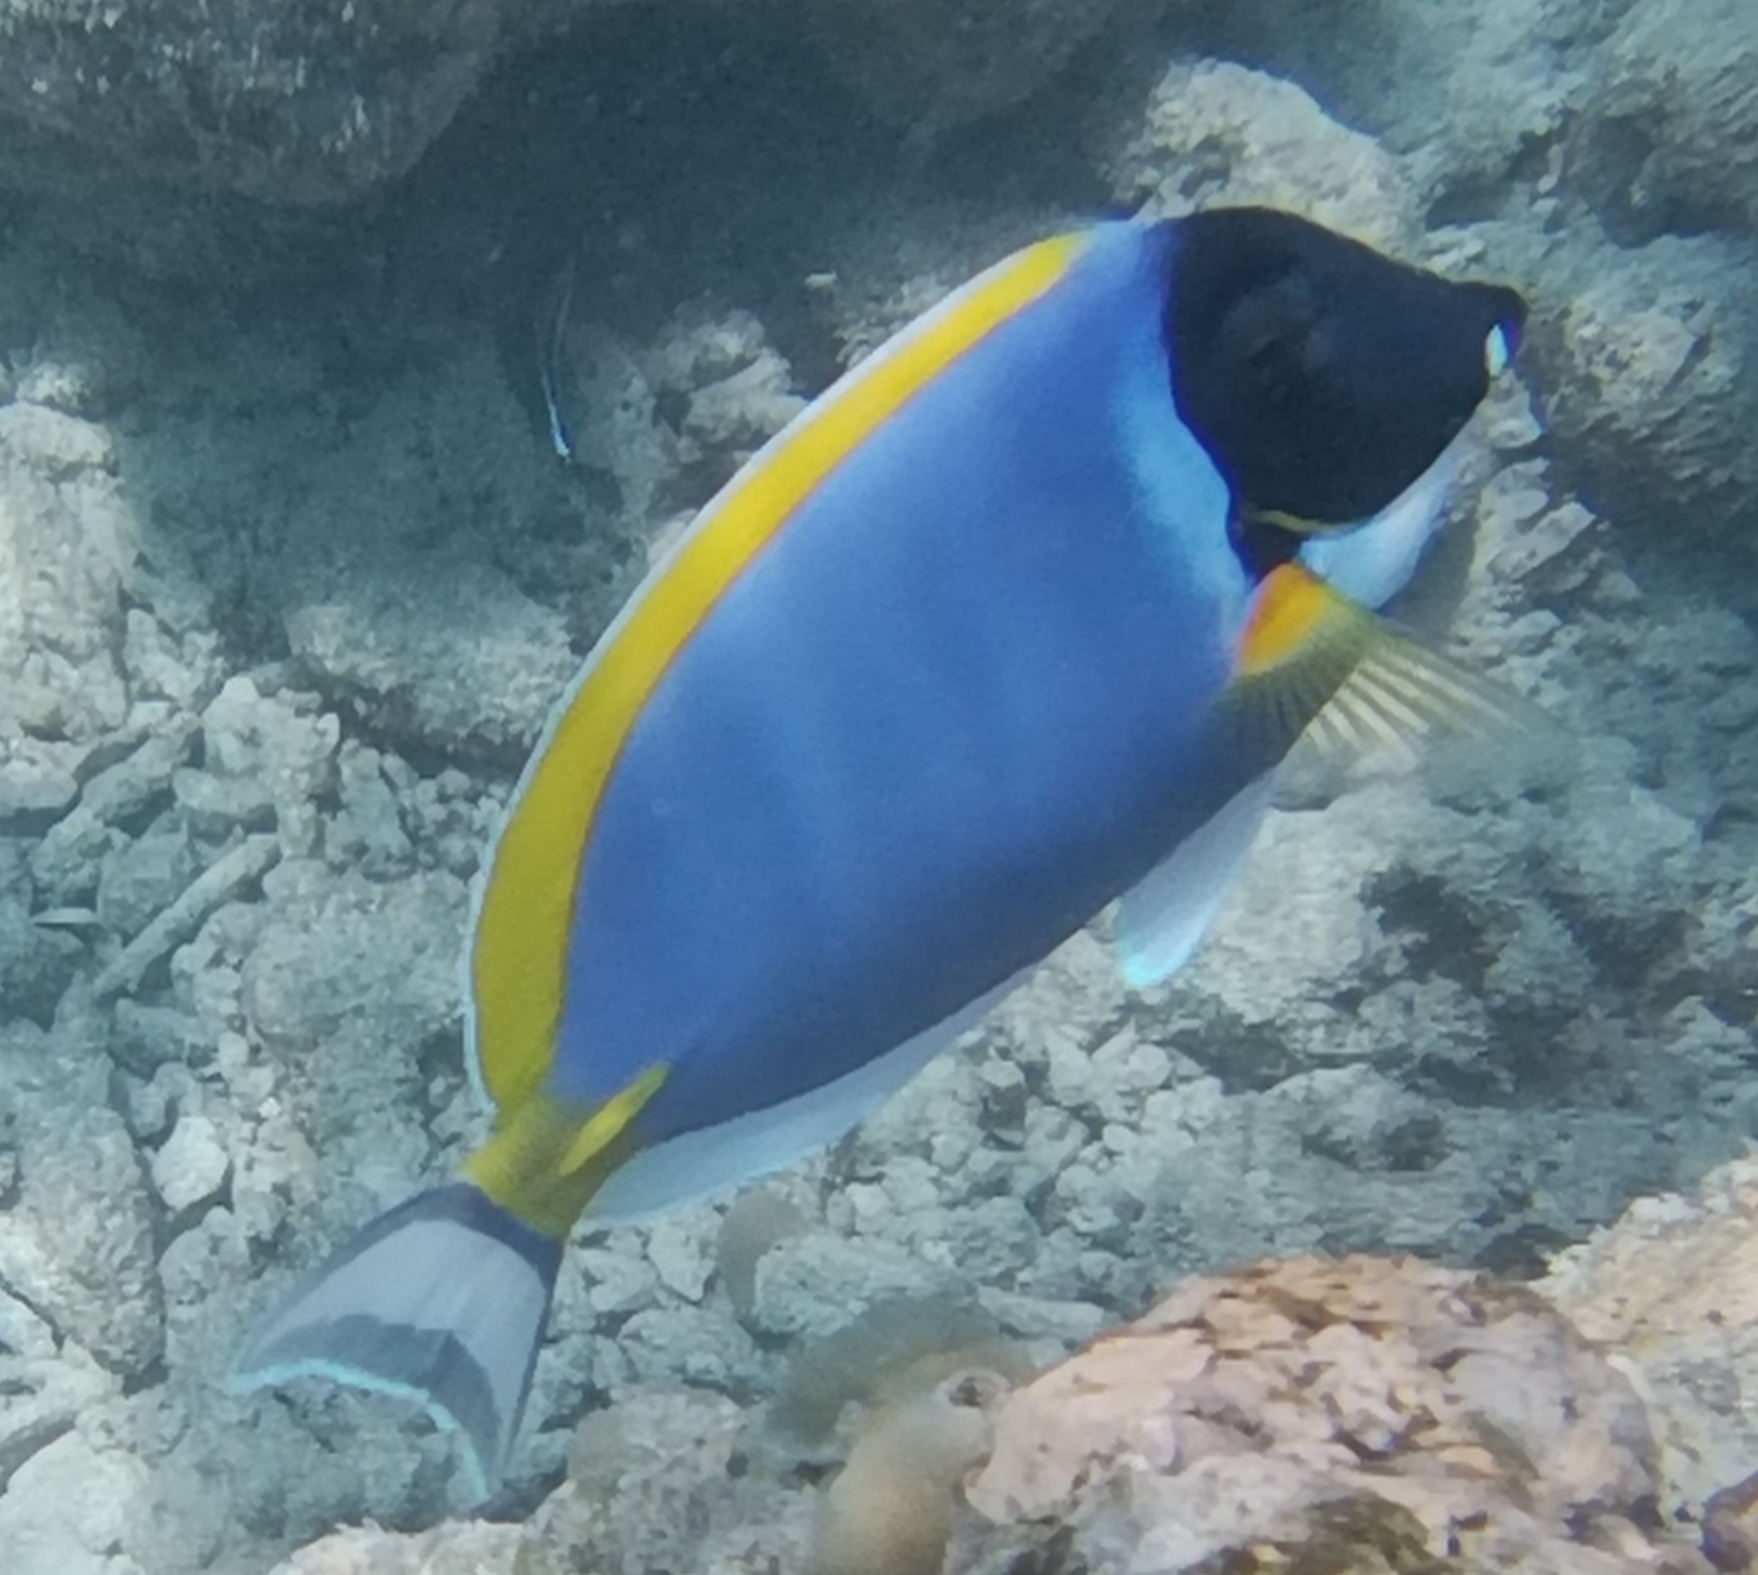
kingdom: Animalia
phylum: Chordata
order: Perciformes
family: Acanthuridae
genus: Acanthurus
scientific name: Acanthurus leucosternon
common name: Blue surgeonfish
